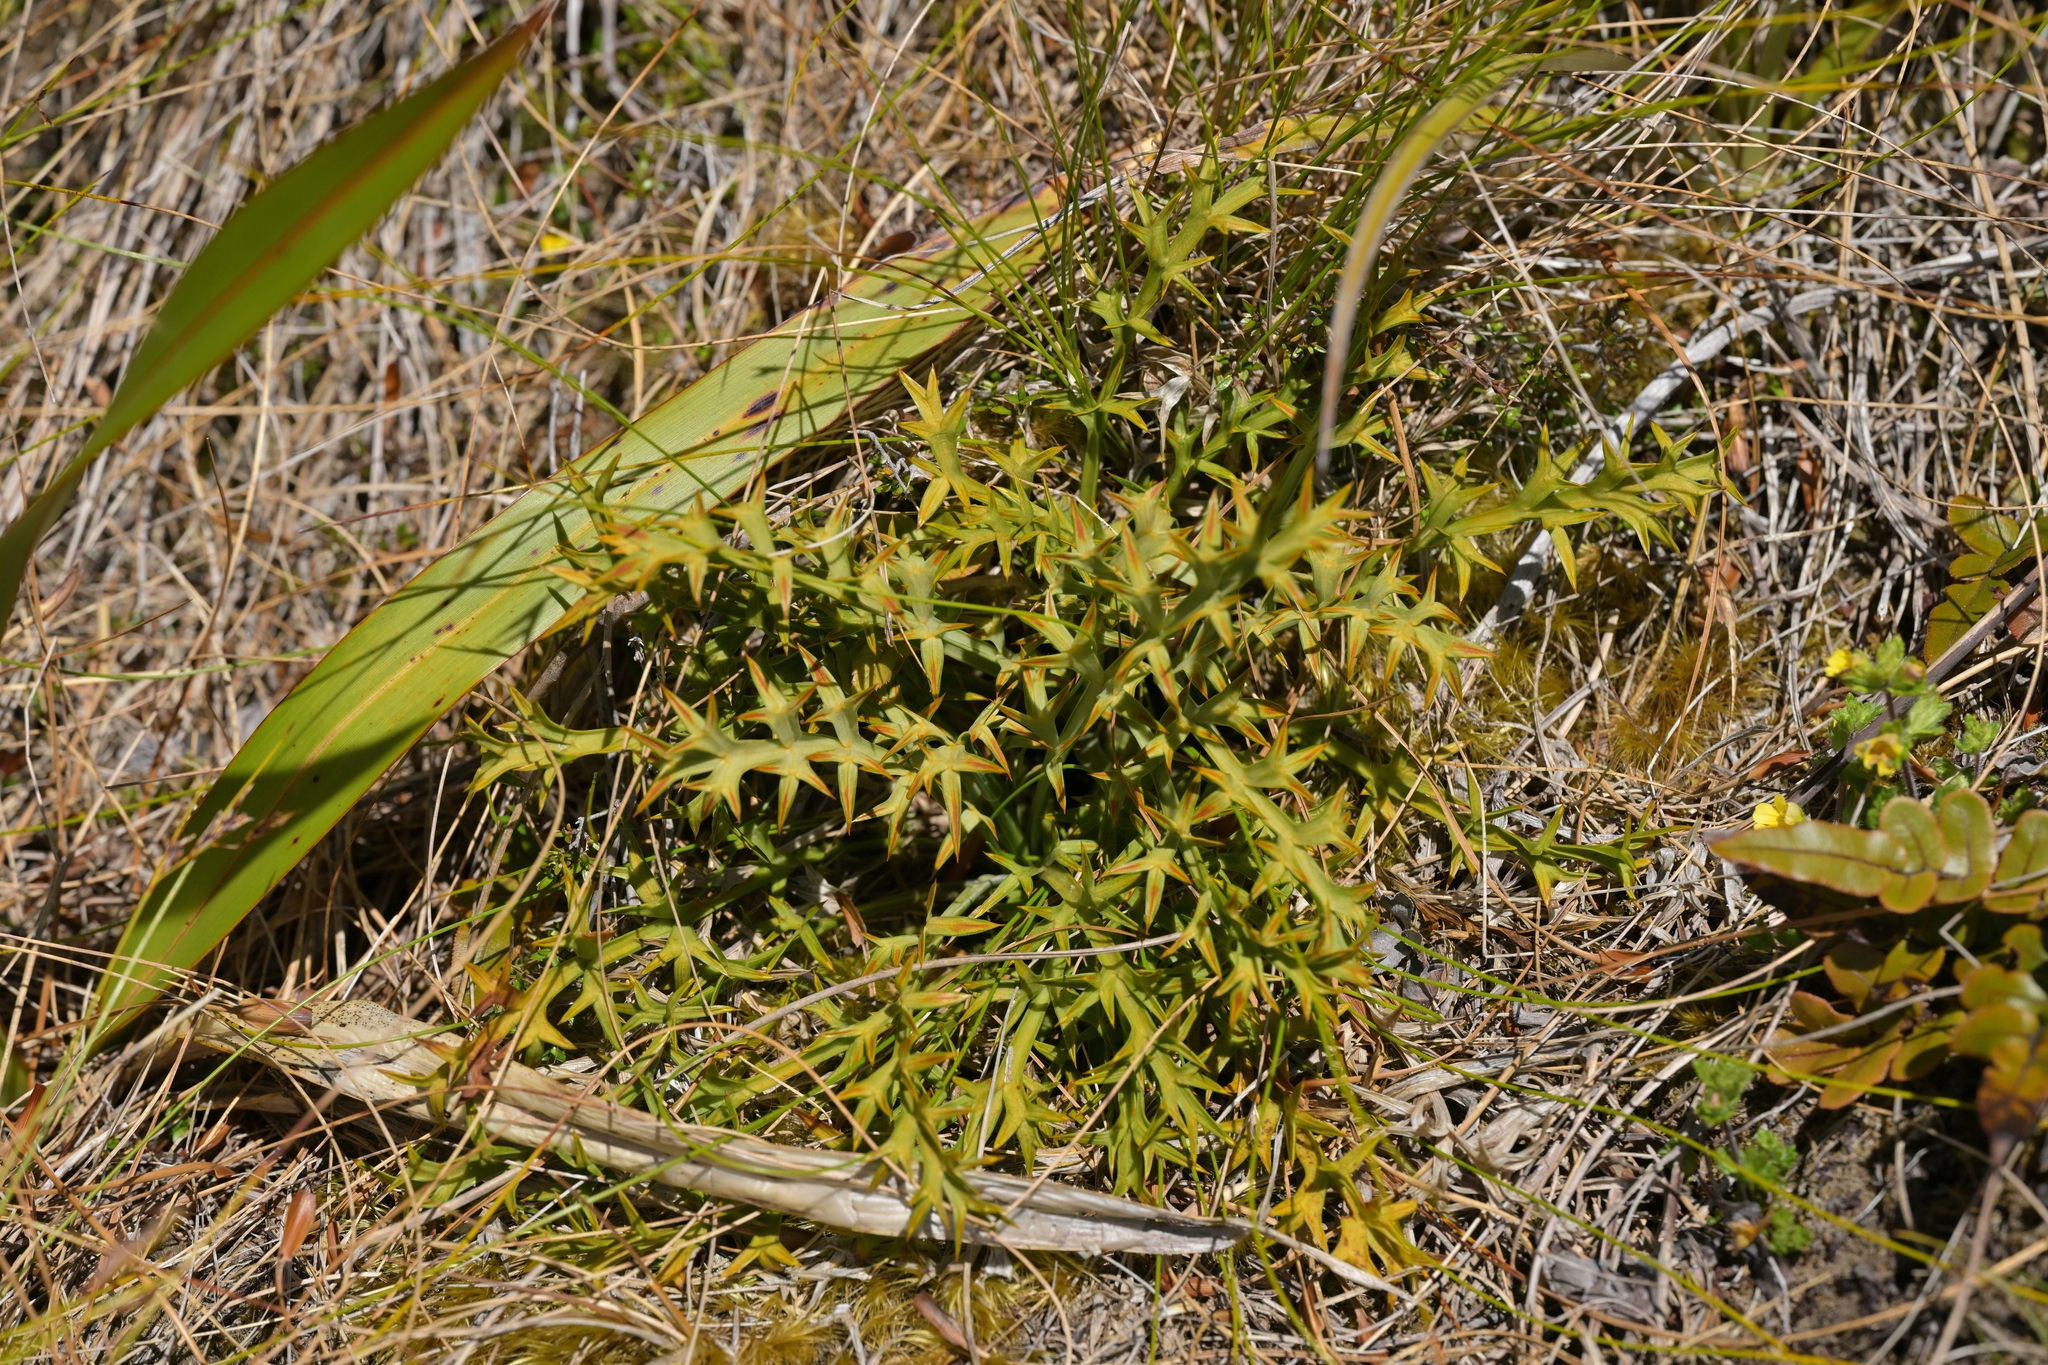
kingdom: Plantae
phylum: Tracheophyta
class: Magnoliopsida
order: Apiales
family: Apiaceae
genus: Aciphylla
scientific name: Aciphylla hookeri
